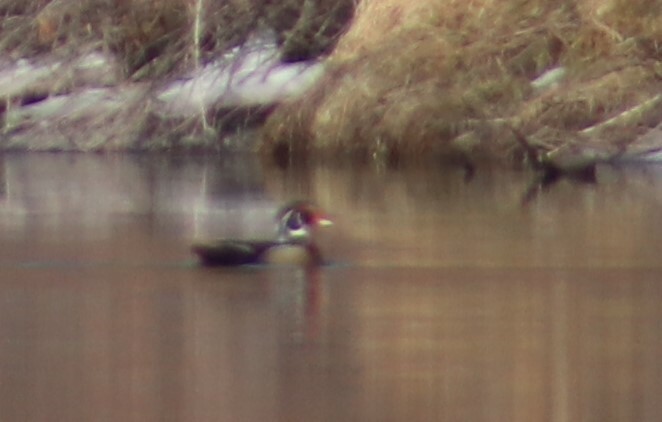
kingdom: Animalia
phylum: Chordata
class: Aves
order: Anseriformes
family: Anatidae
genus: Aix
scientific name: Aix sponsa
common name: Wood duck
